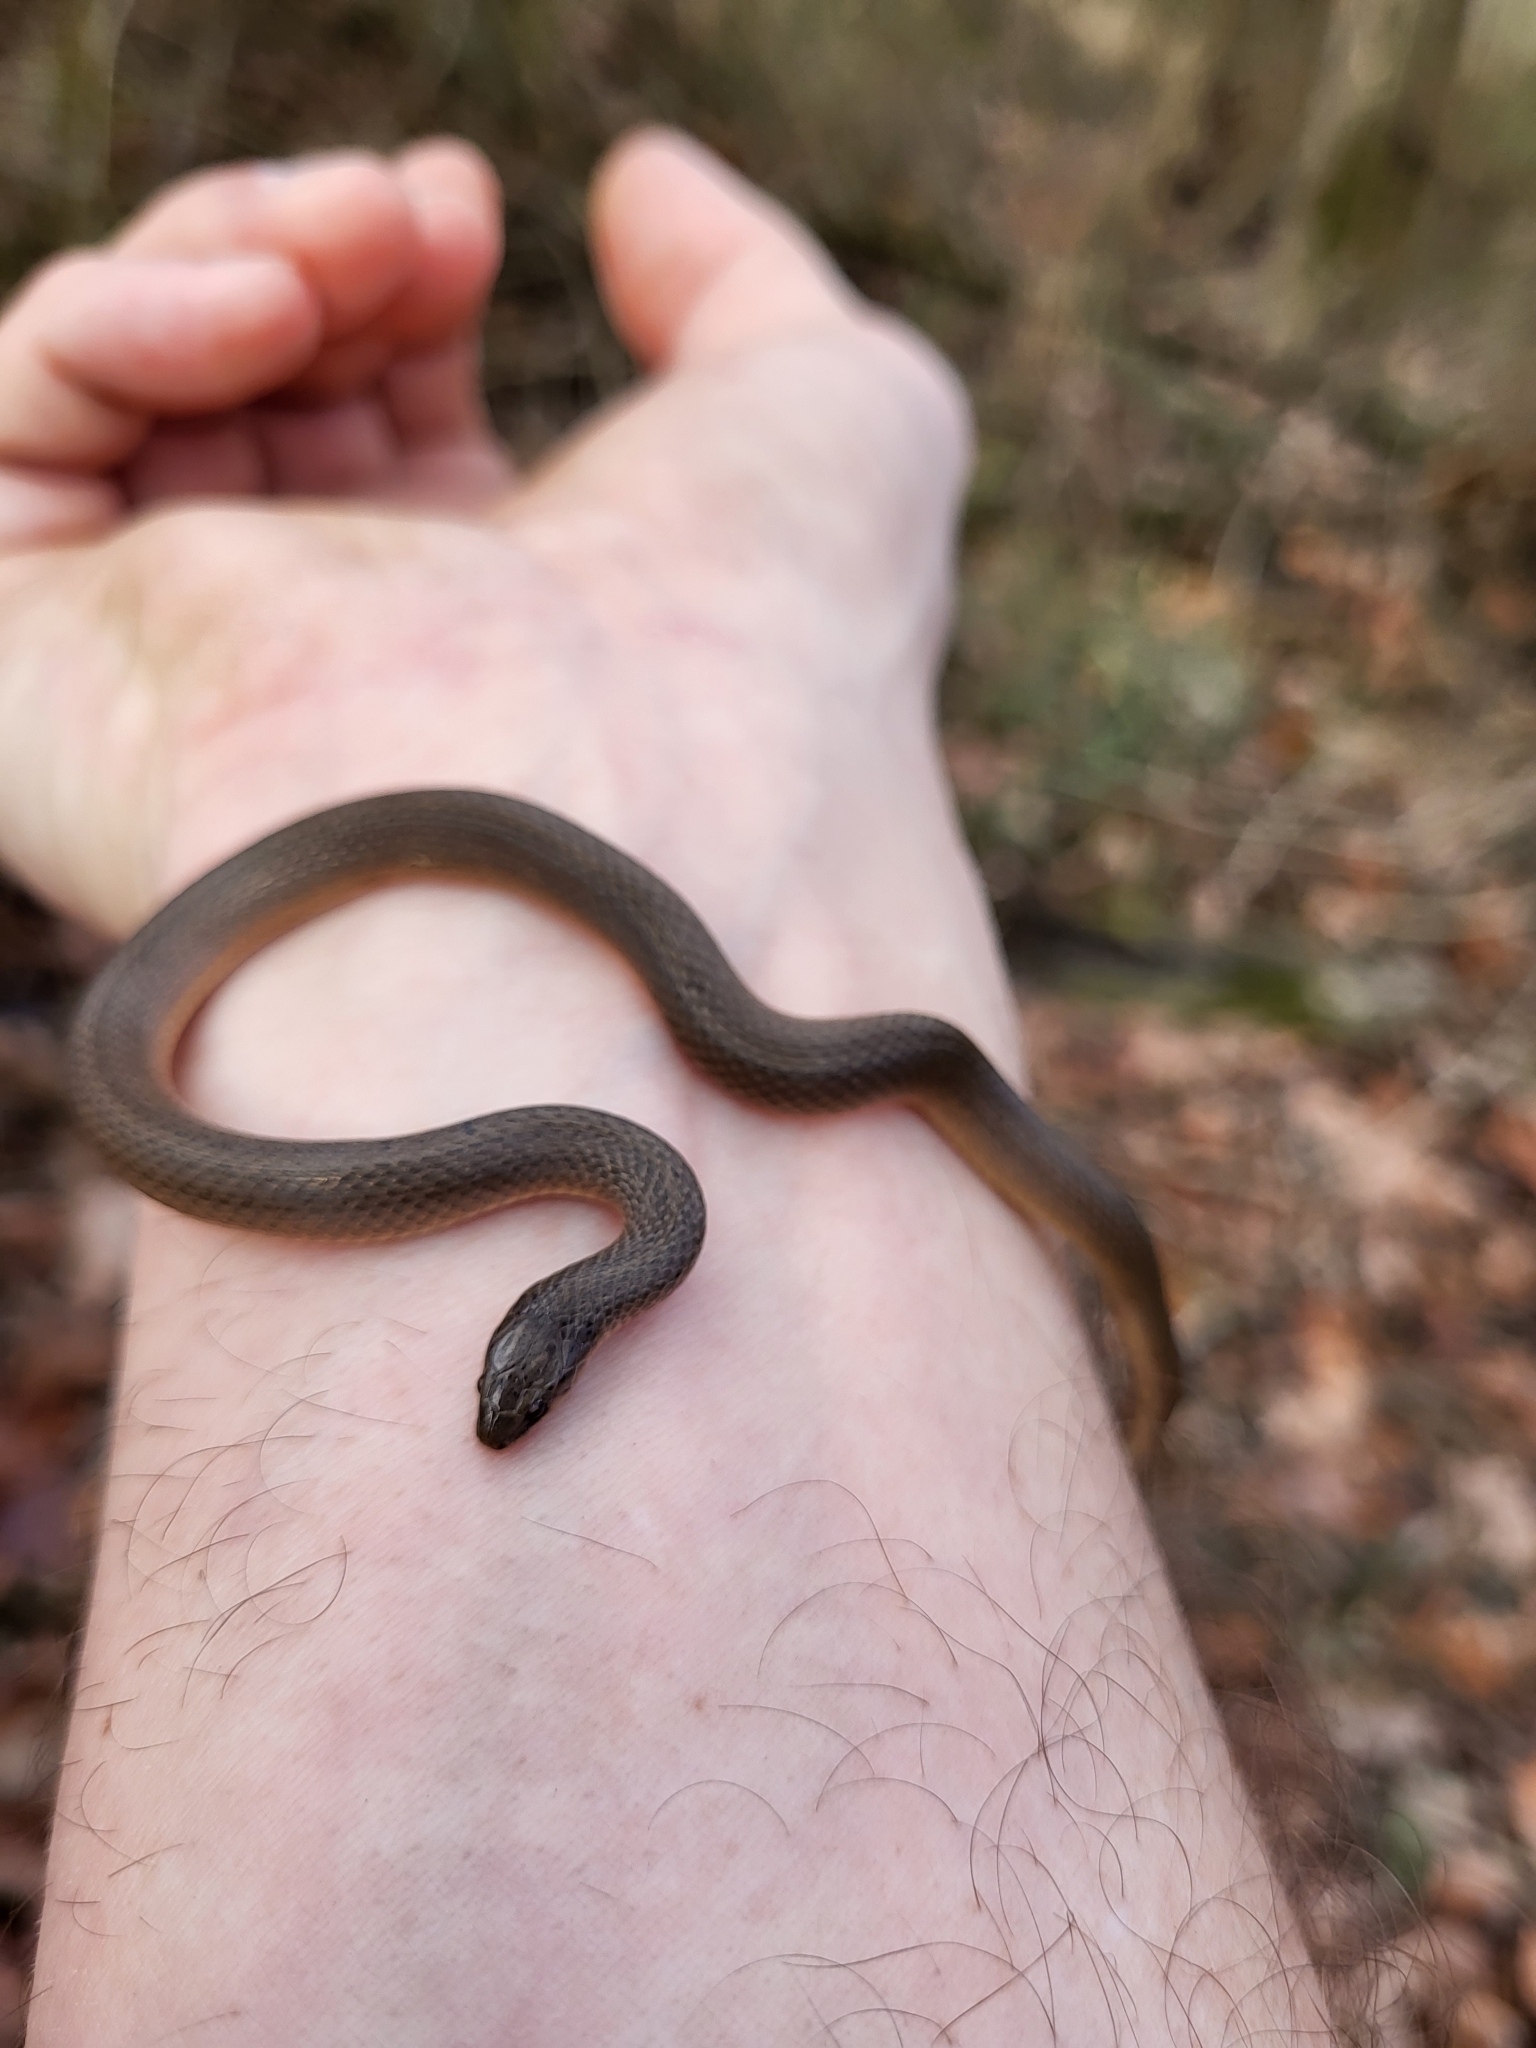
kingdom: Animalia
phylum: Chordata
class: Squamata
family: Colubridae
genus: Haldea
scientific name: Haldea striatula
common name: Rough earth snake
